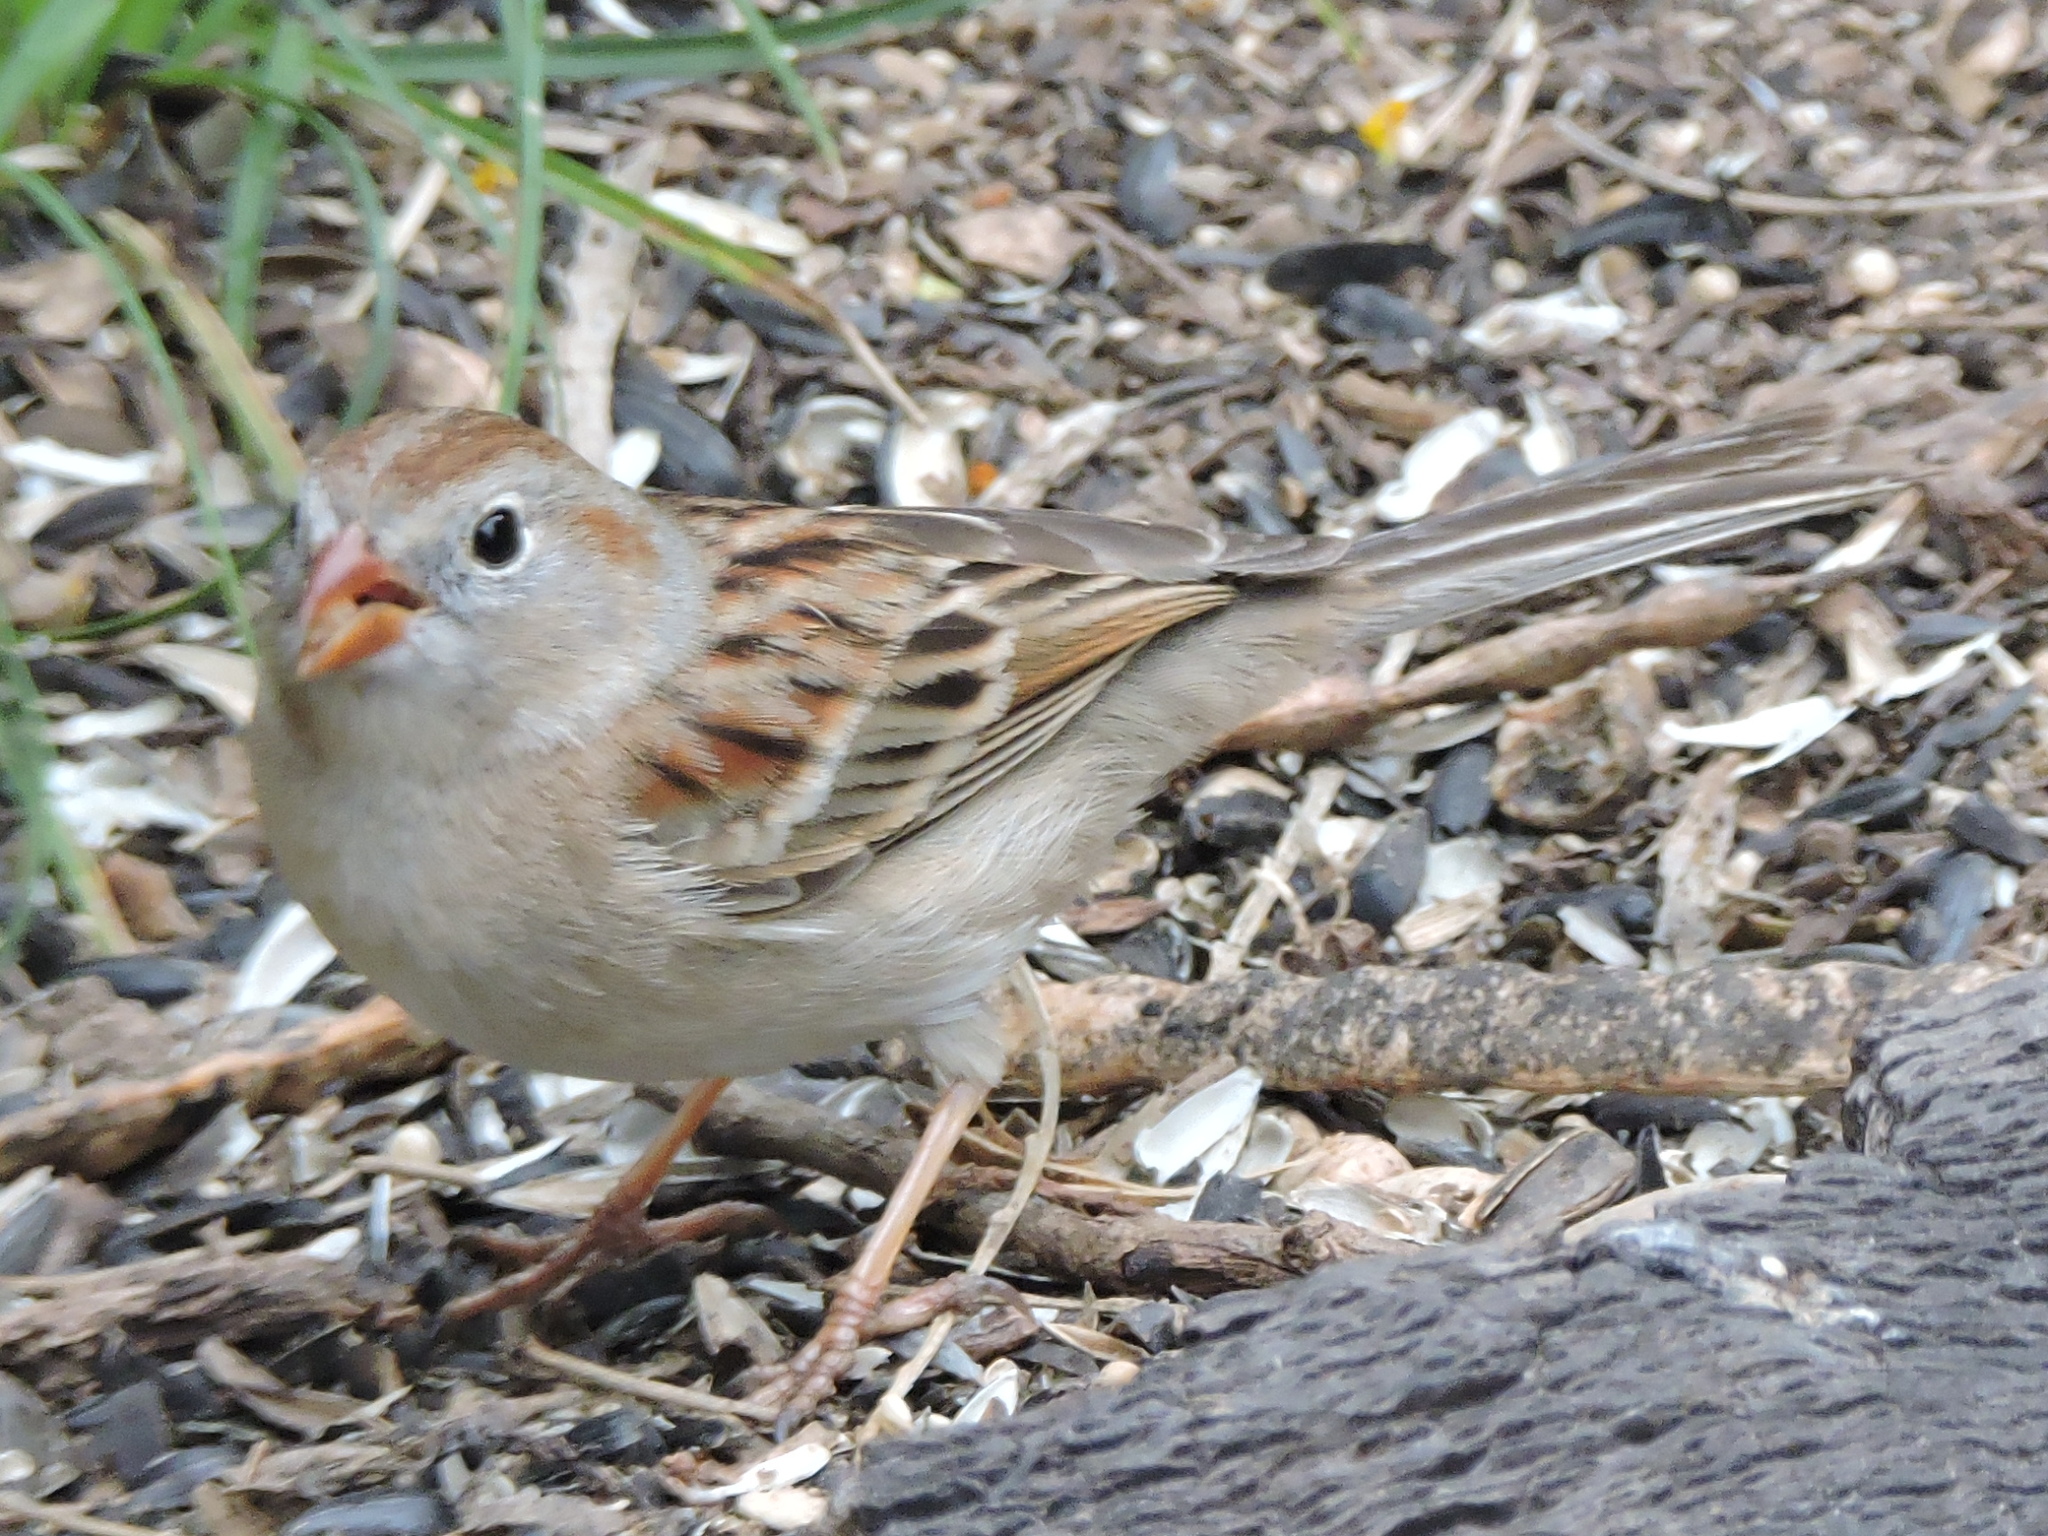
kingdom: Animalia
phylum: Chordata
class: Aves
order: Passeriformes
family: Passerellidae
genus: Spizella
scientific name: Spizella pusilla
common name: Field sparrow
